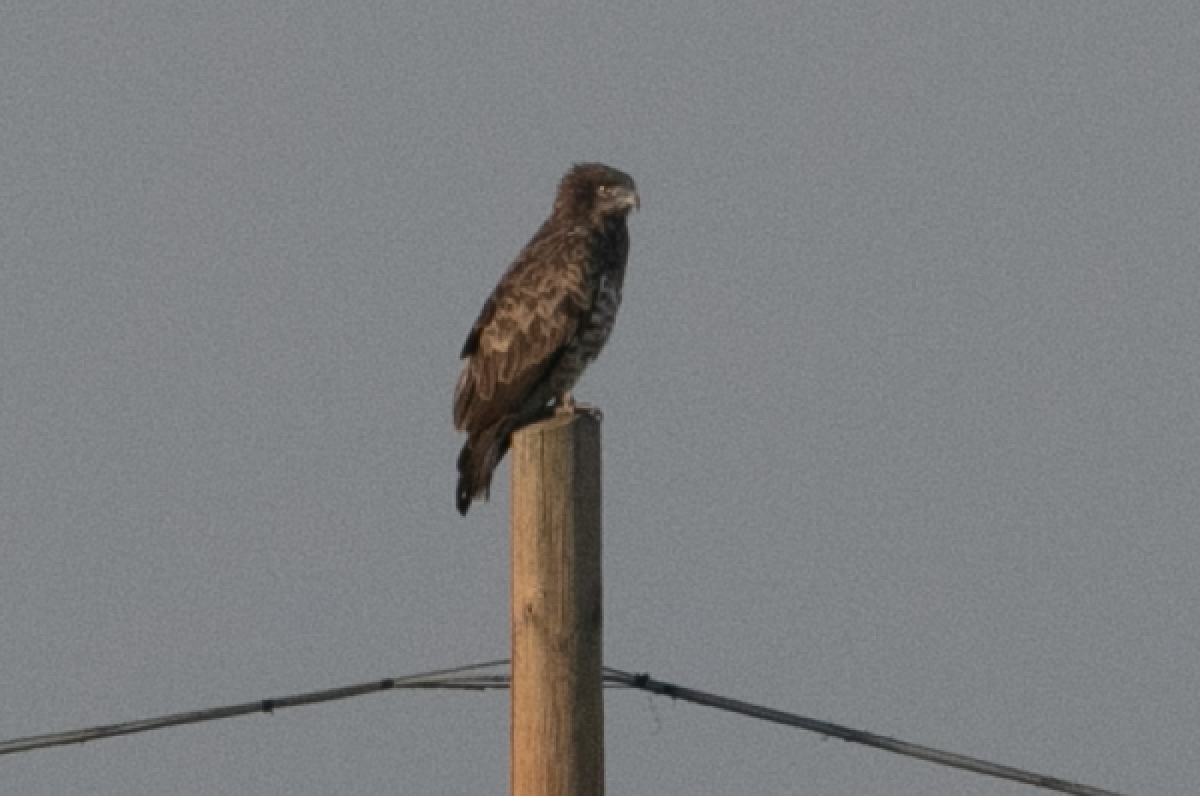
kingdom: Animalia
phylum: Chordata
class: Aves
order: Accipitriformes
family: Accipitridae
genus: Circaetus
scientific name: Circaetus gallicus
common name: Short-toed snake eagle
